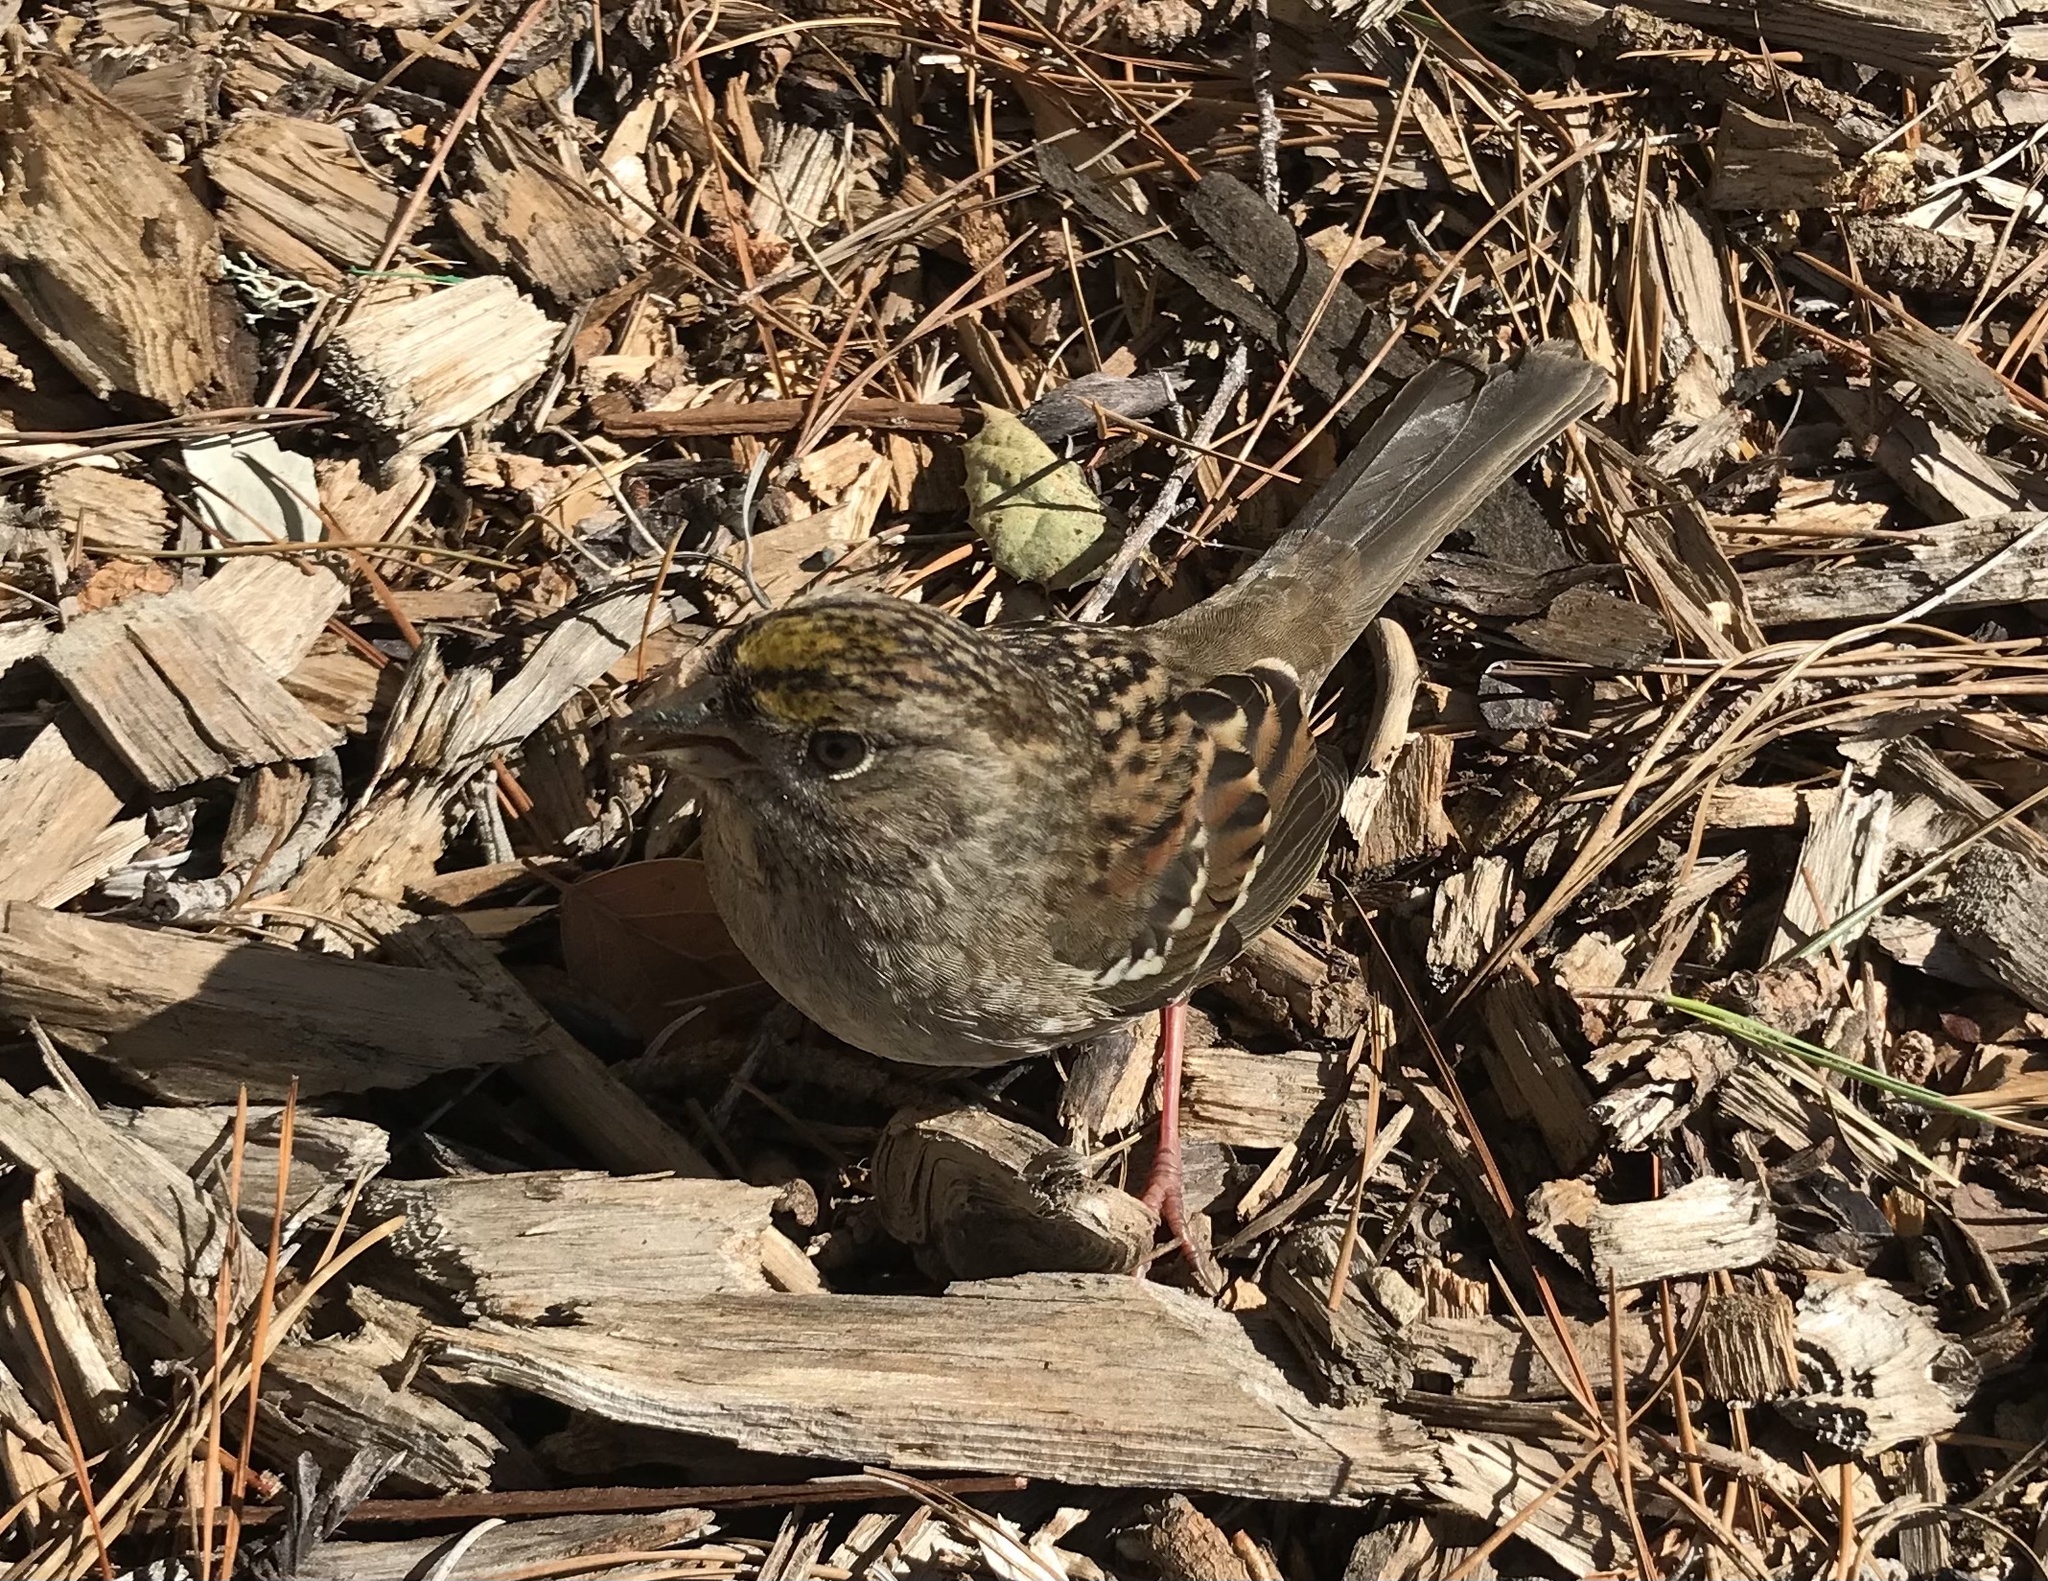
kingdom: Animalia
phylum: Chordata
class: Aves
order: Passeriformes
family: Passerellidae
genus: Zonotrichia
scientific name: Zonotrichia atricapilla
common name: Golden-crowned sparrow
